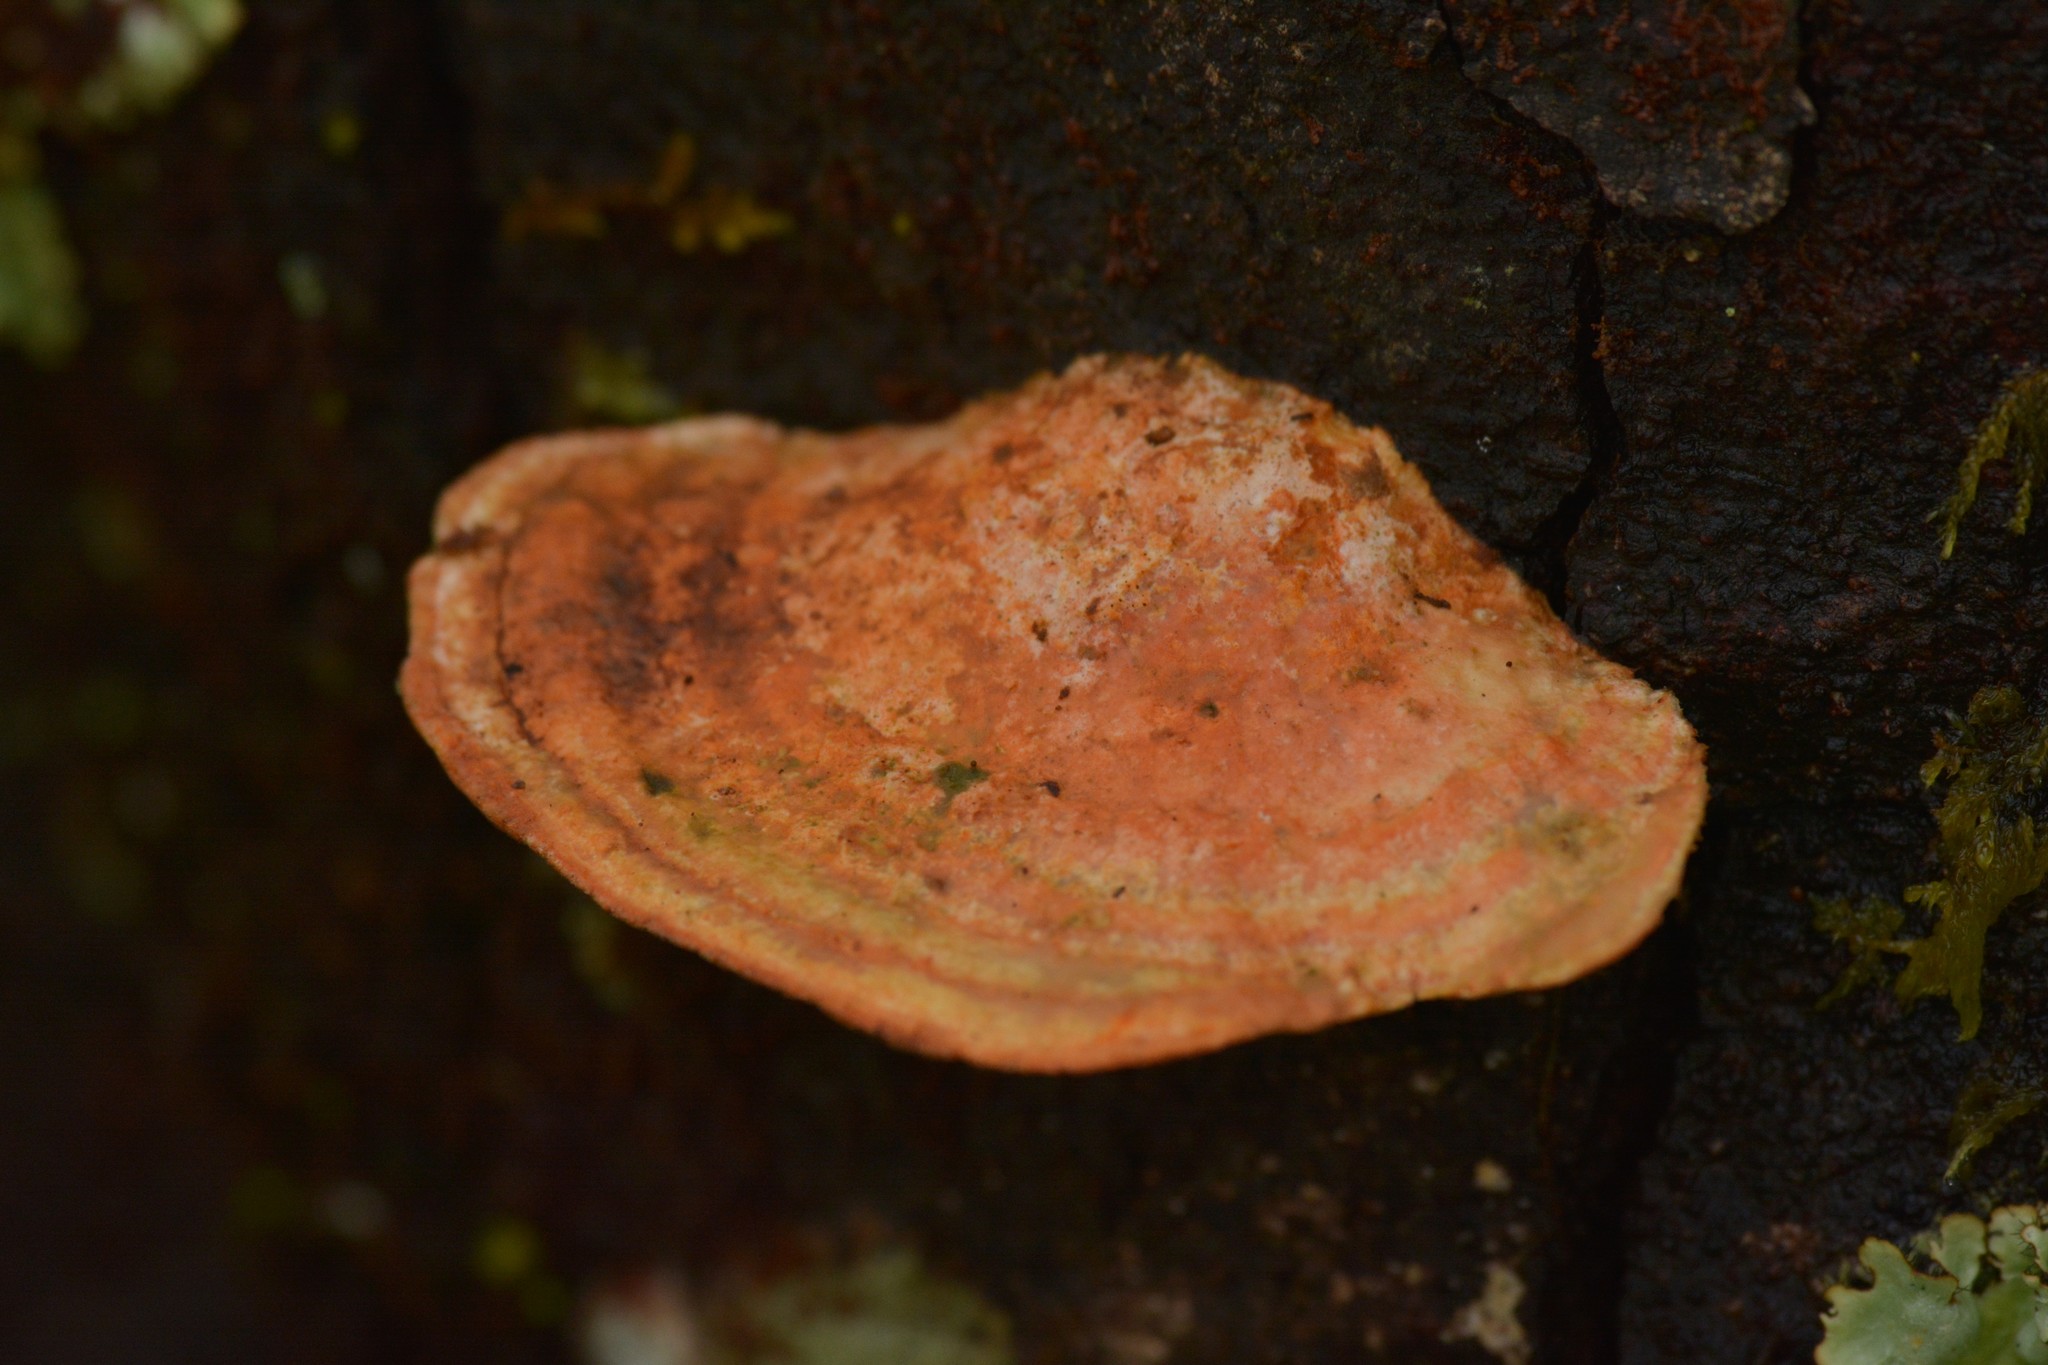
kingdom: Fungi
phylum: Basidiomycota
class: Agaricomycetes
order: Polyporales
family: Polyporaceae
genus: Trametes
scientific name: Trametes coccinea
